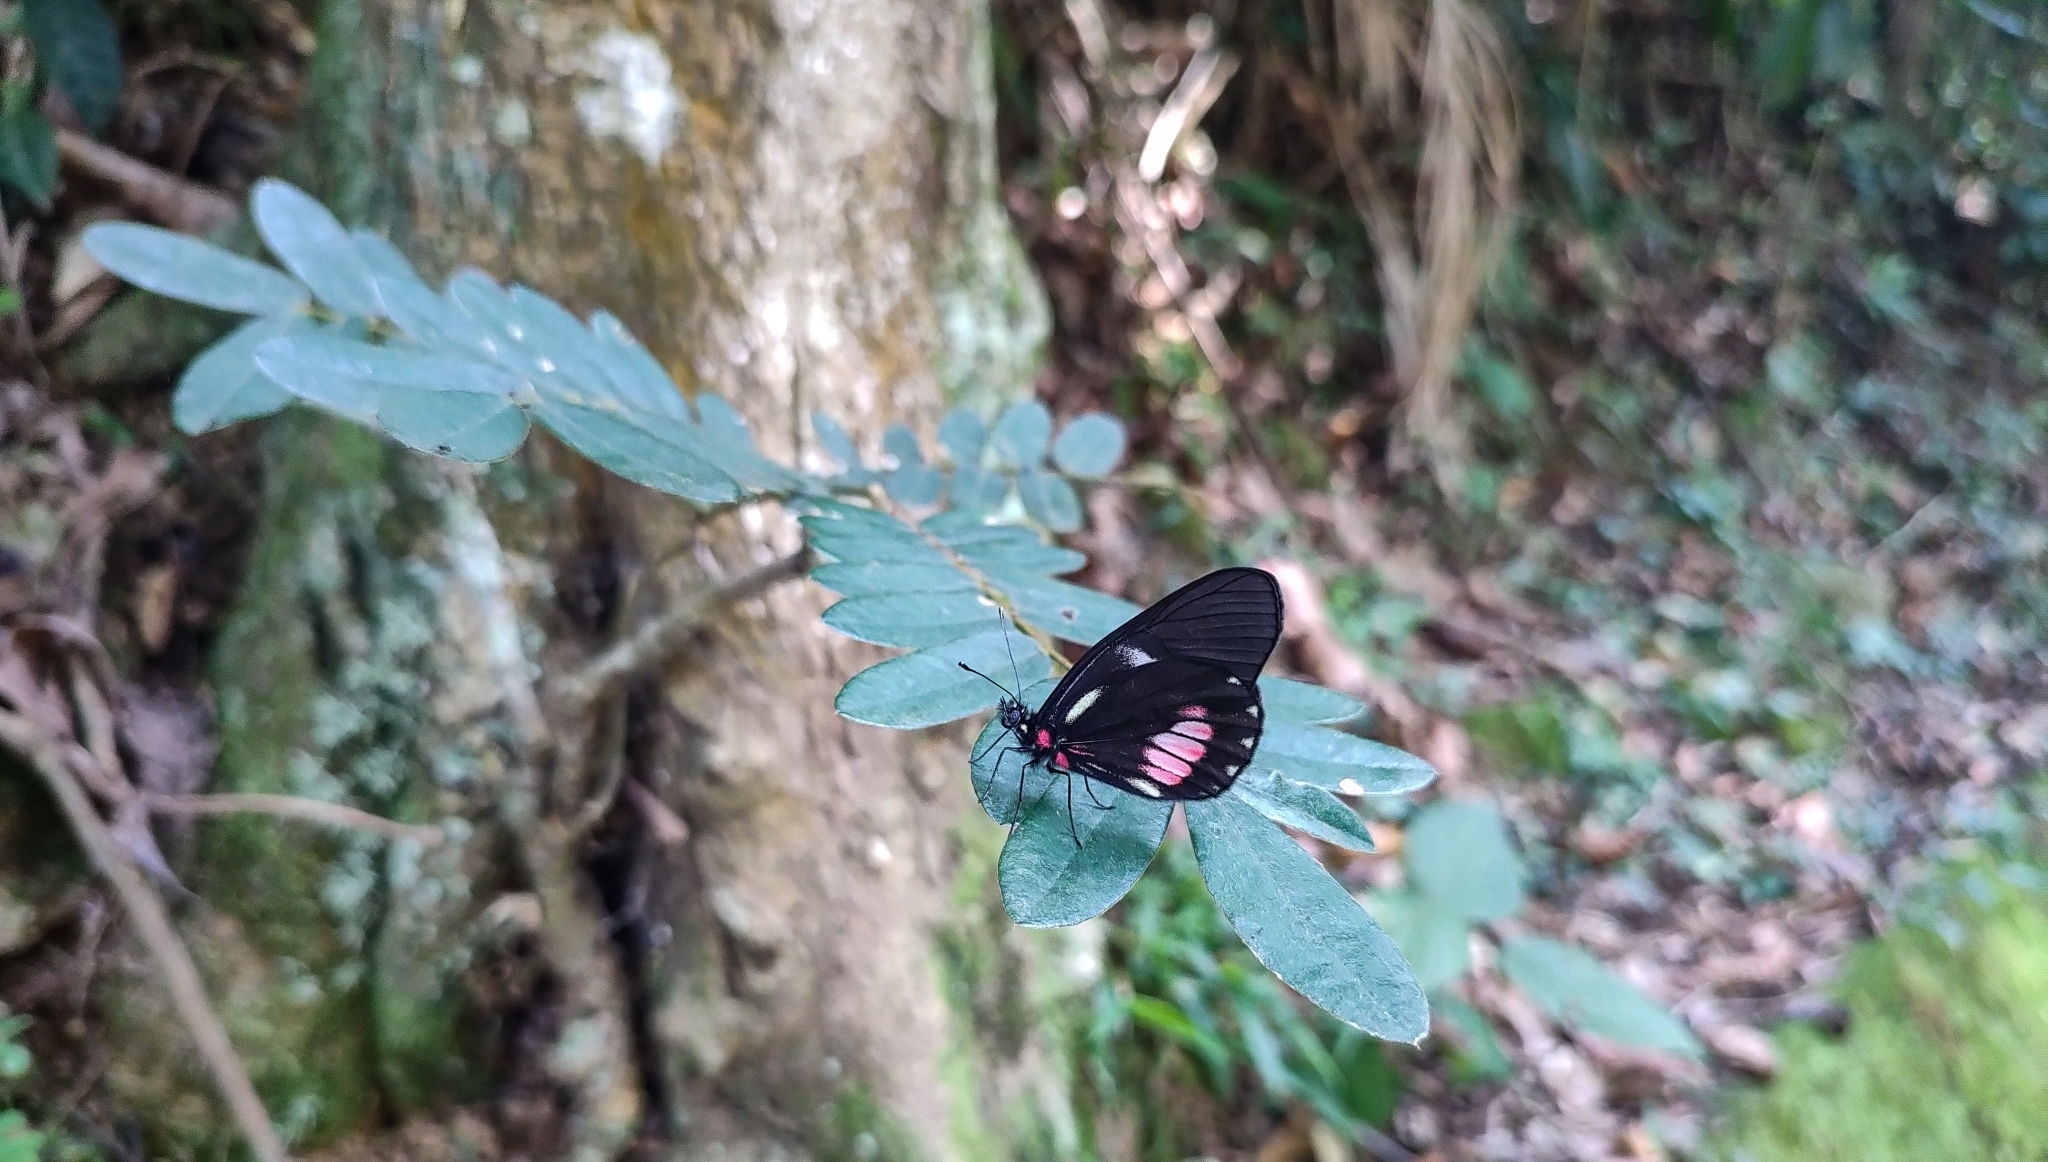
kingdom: Animalia
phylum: Arthropoda
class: Insecta
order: Lepidoptera
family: Pieridae
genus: Archonias
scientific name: Archonias brassolis
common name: Cattleheart white
